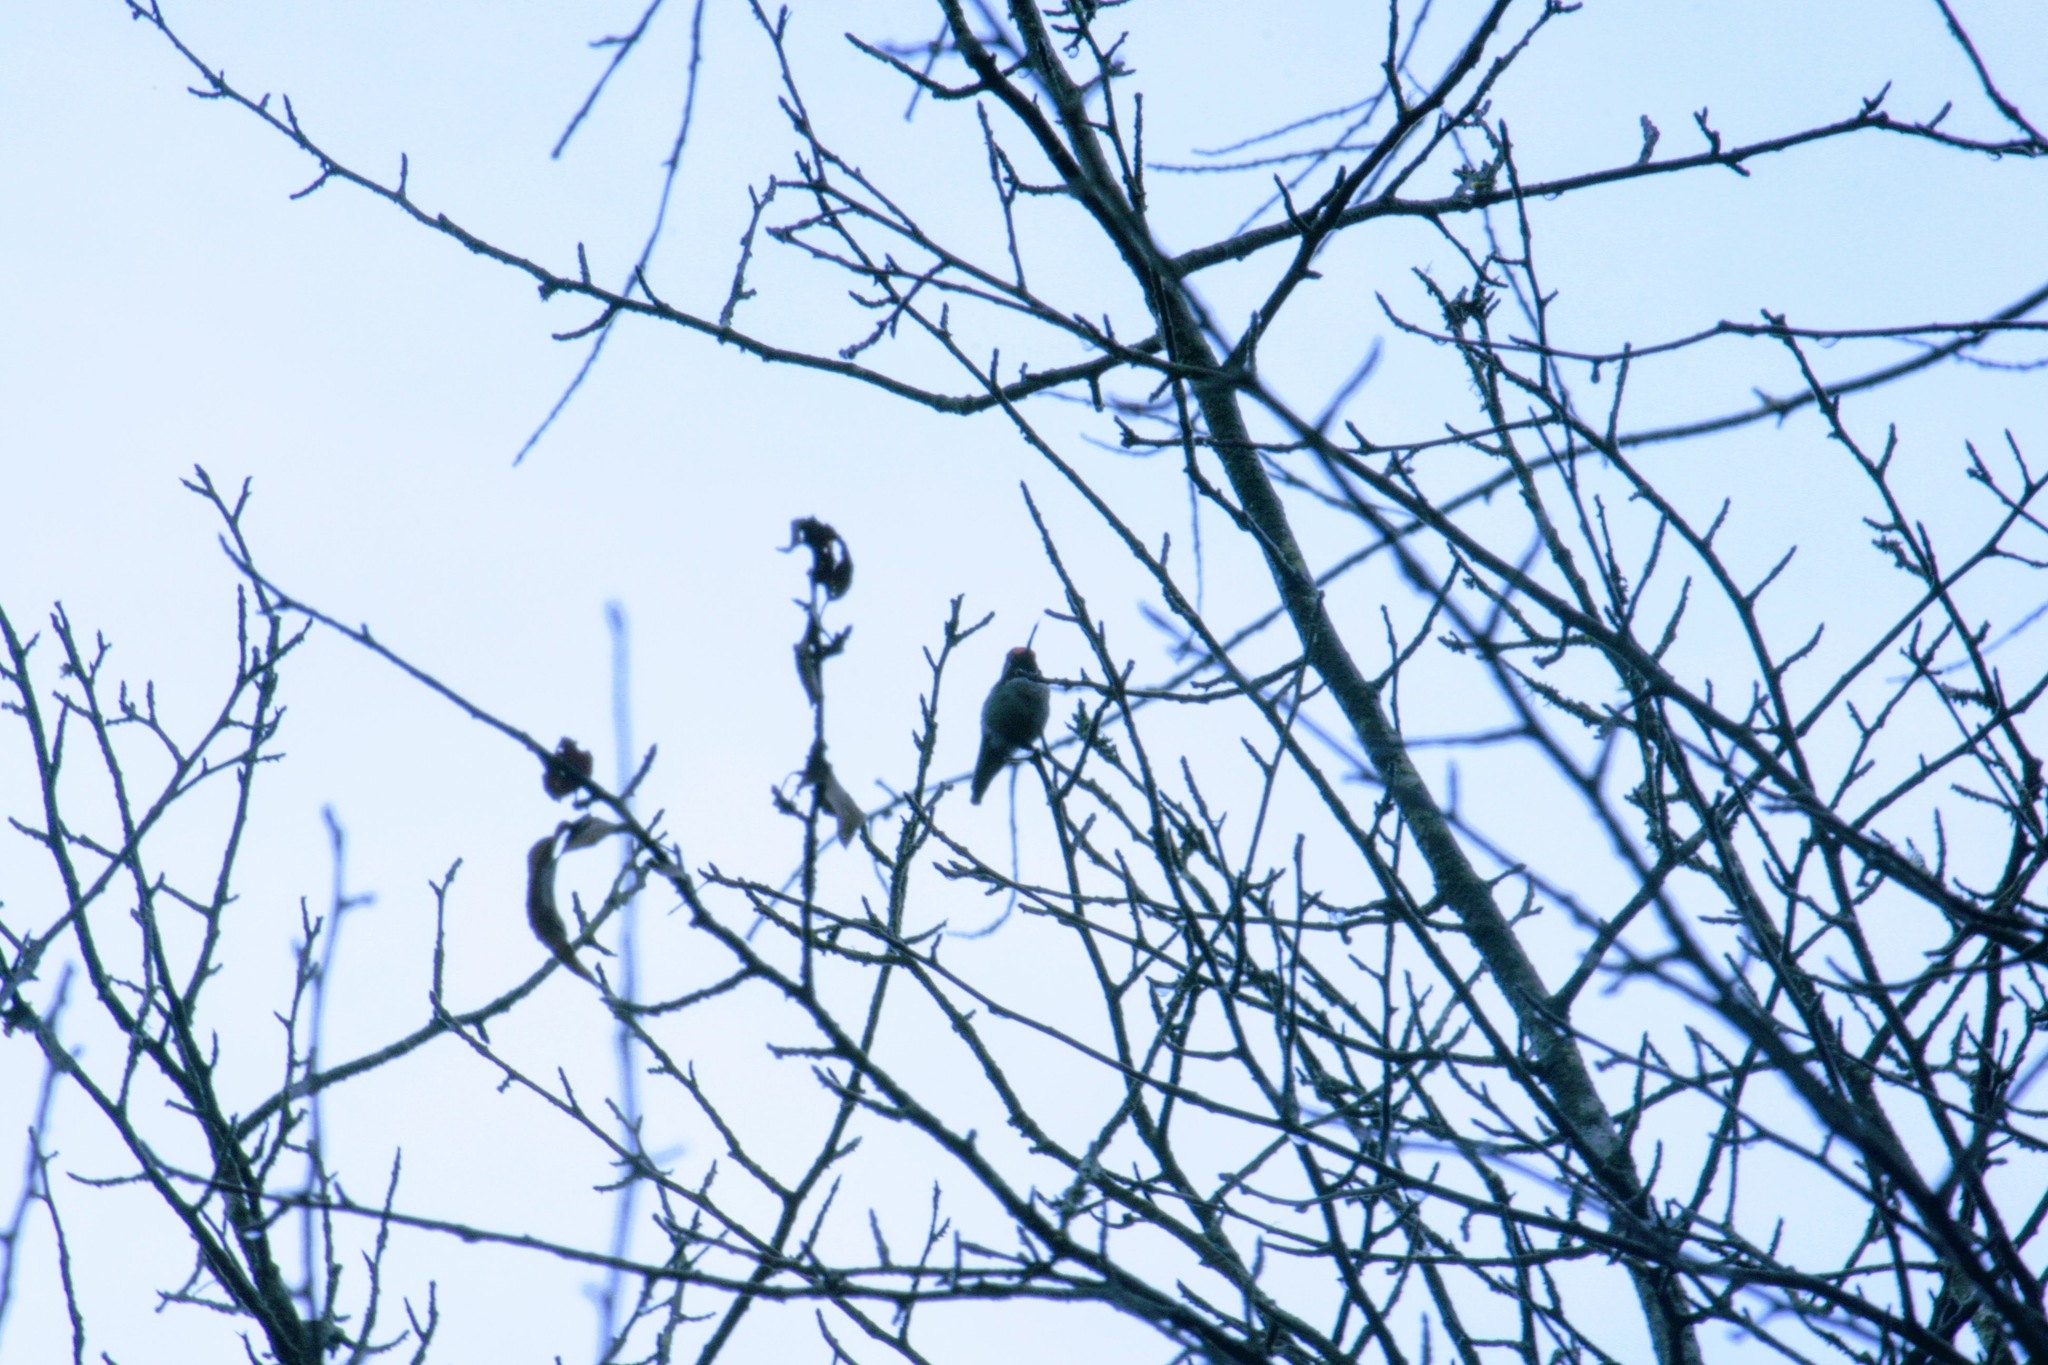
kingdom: Animalia
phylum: Chordata
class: Aves
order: Apodiformes
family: Trochilidae
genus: Calypte
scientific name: Calypte anna
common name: Anna's hummingbird
